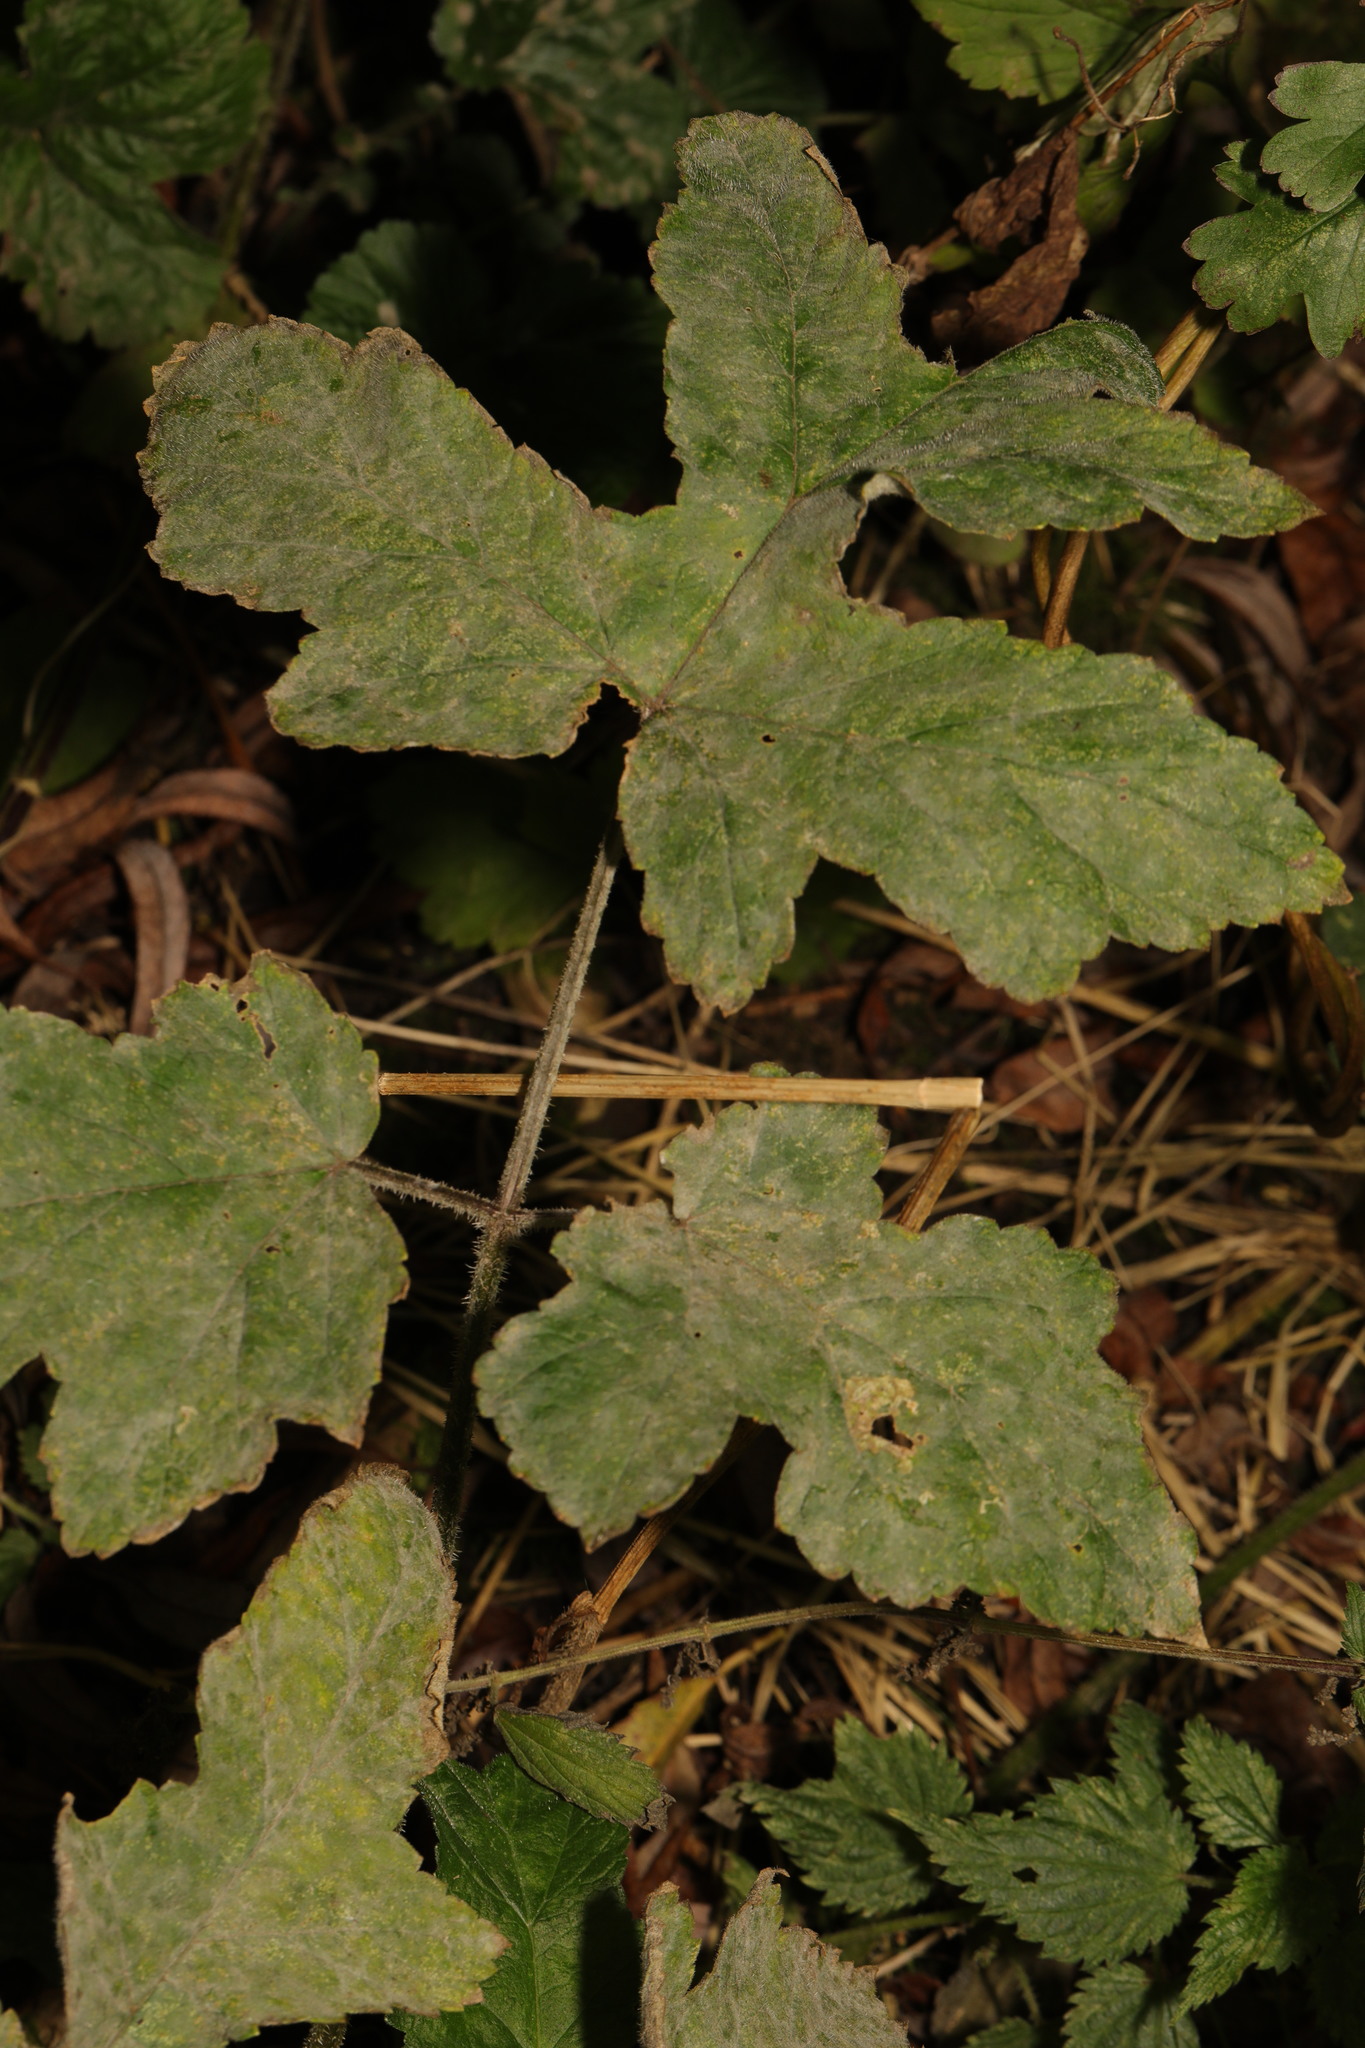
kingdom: Plantae
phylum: Tracheophyta
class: Magnoliopsida
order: Apiales
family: Apiaceae
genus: Heracleum
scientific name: Heracleum sphondylium
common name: Hogweed
